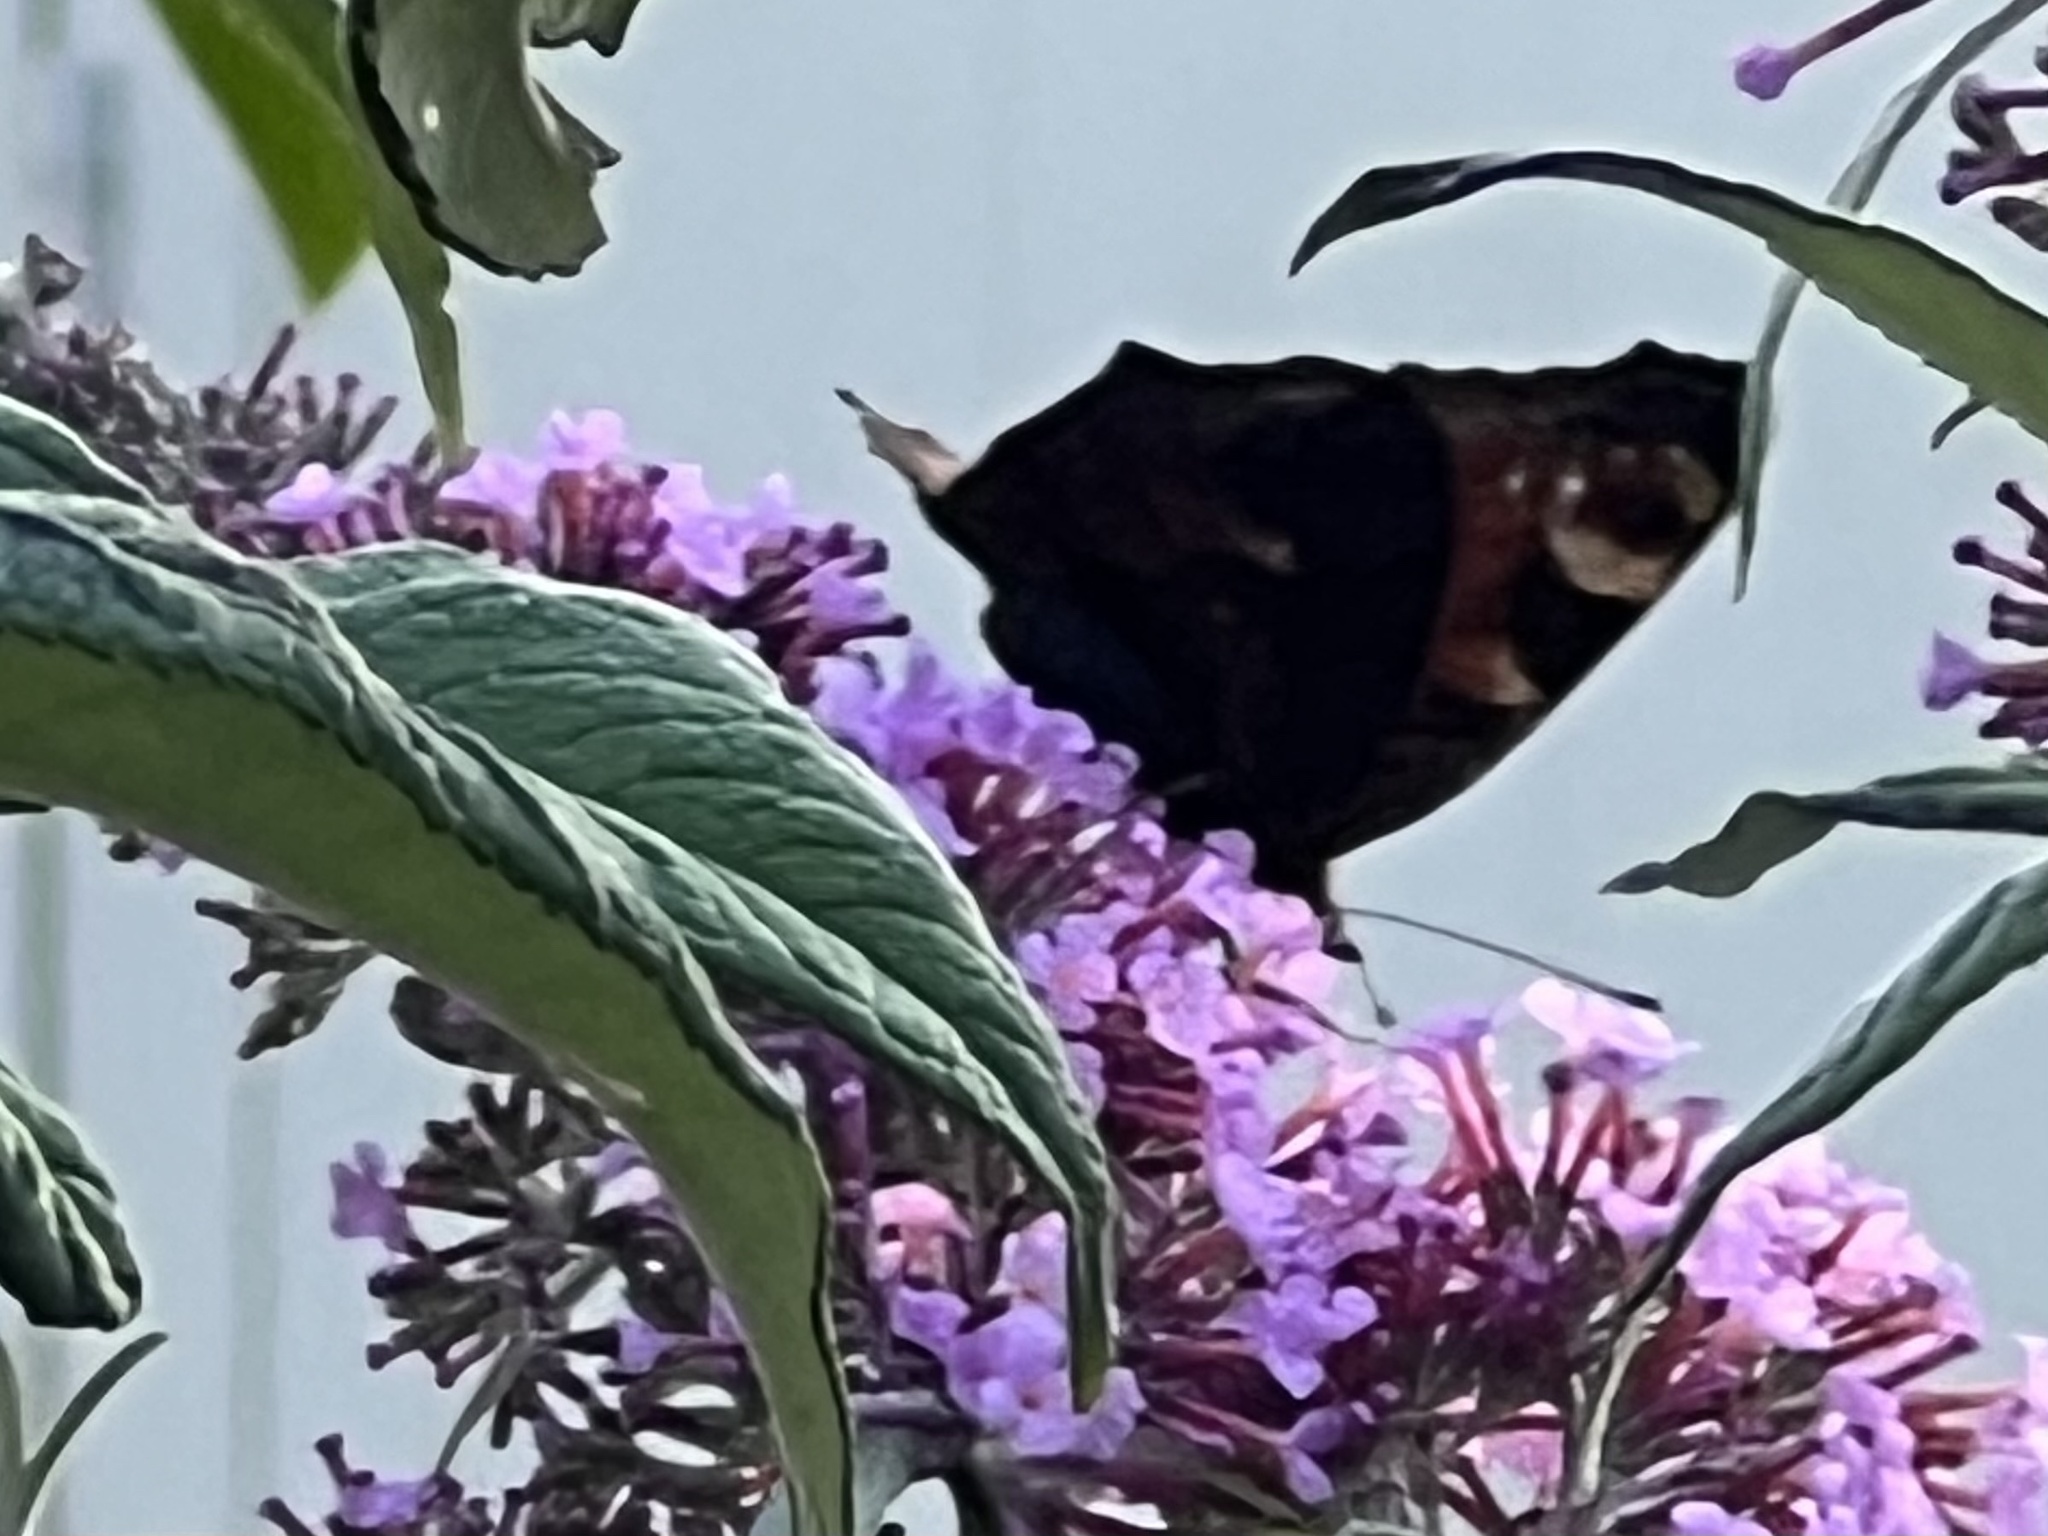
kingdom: Animalia
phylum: Arthropoda
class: Insecta
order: Lepidoptera
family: Nymphalidae
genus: Aglais
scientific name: Aglais io
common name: Peacock
